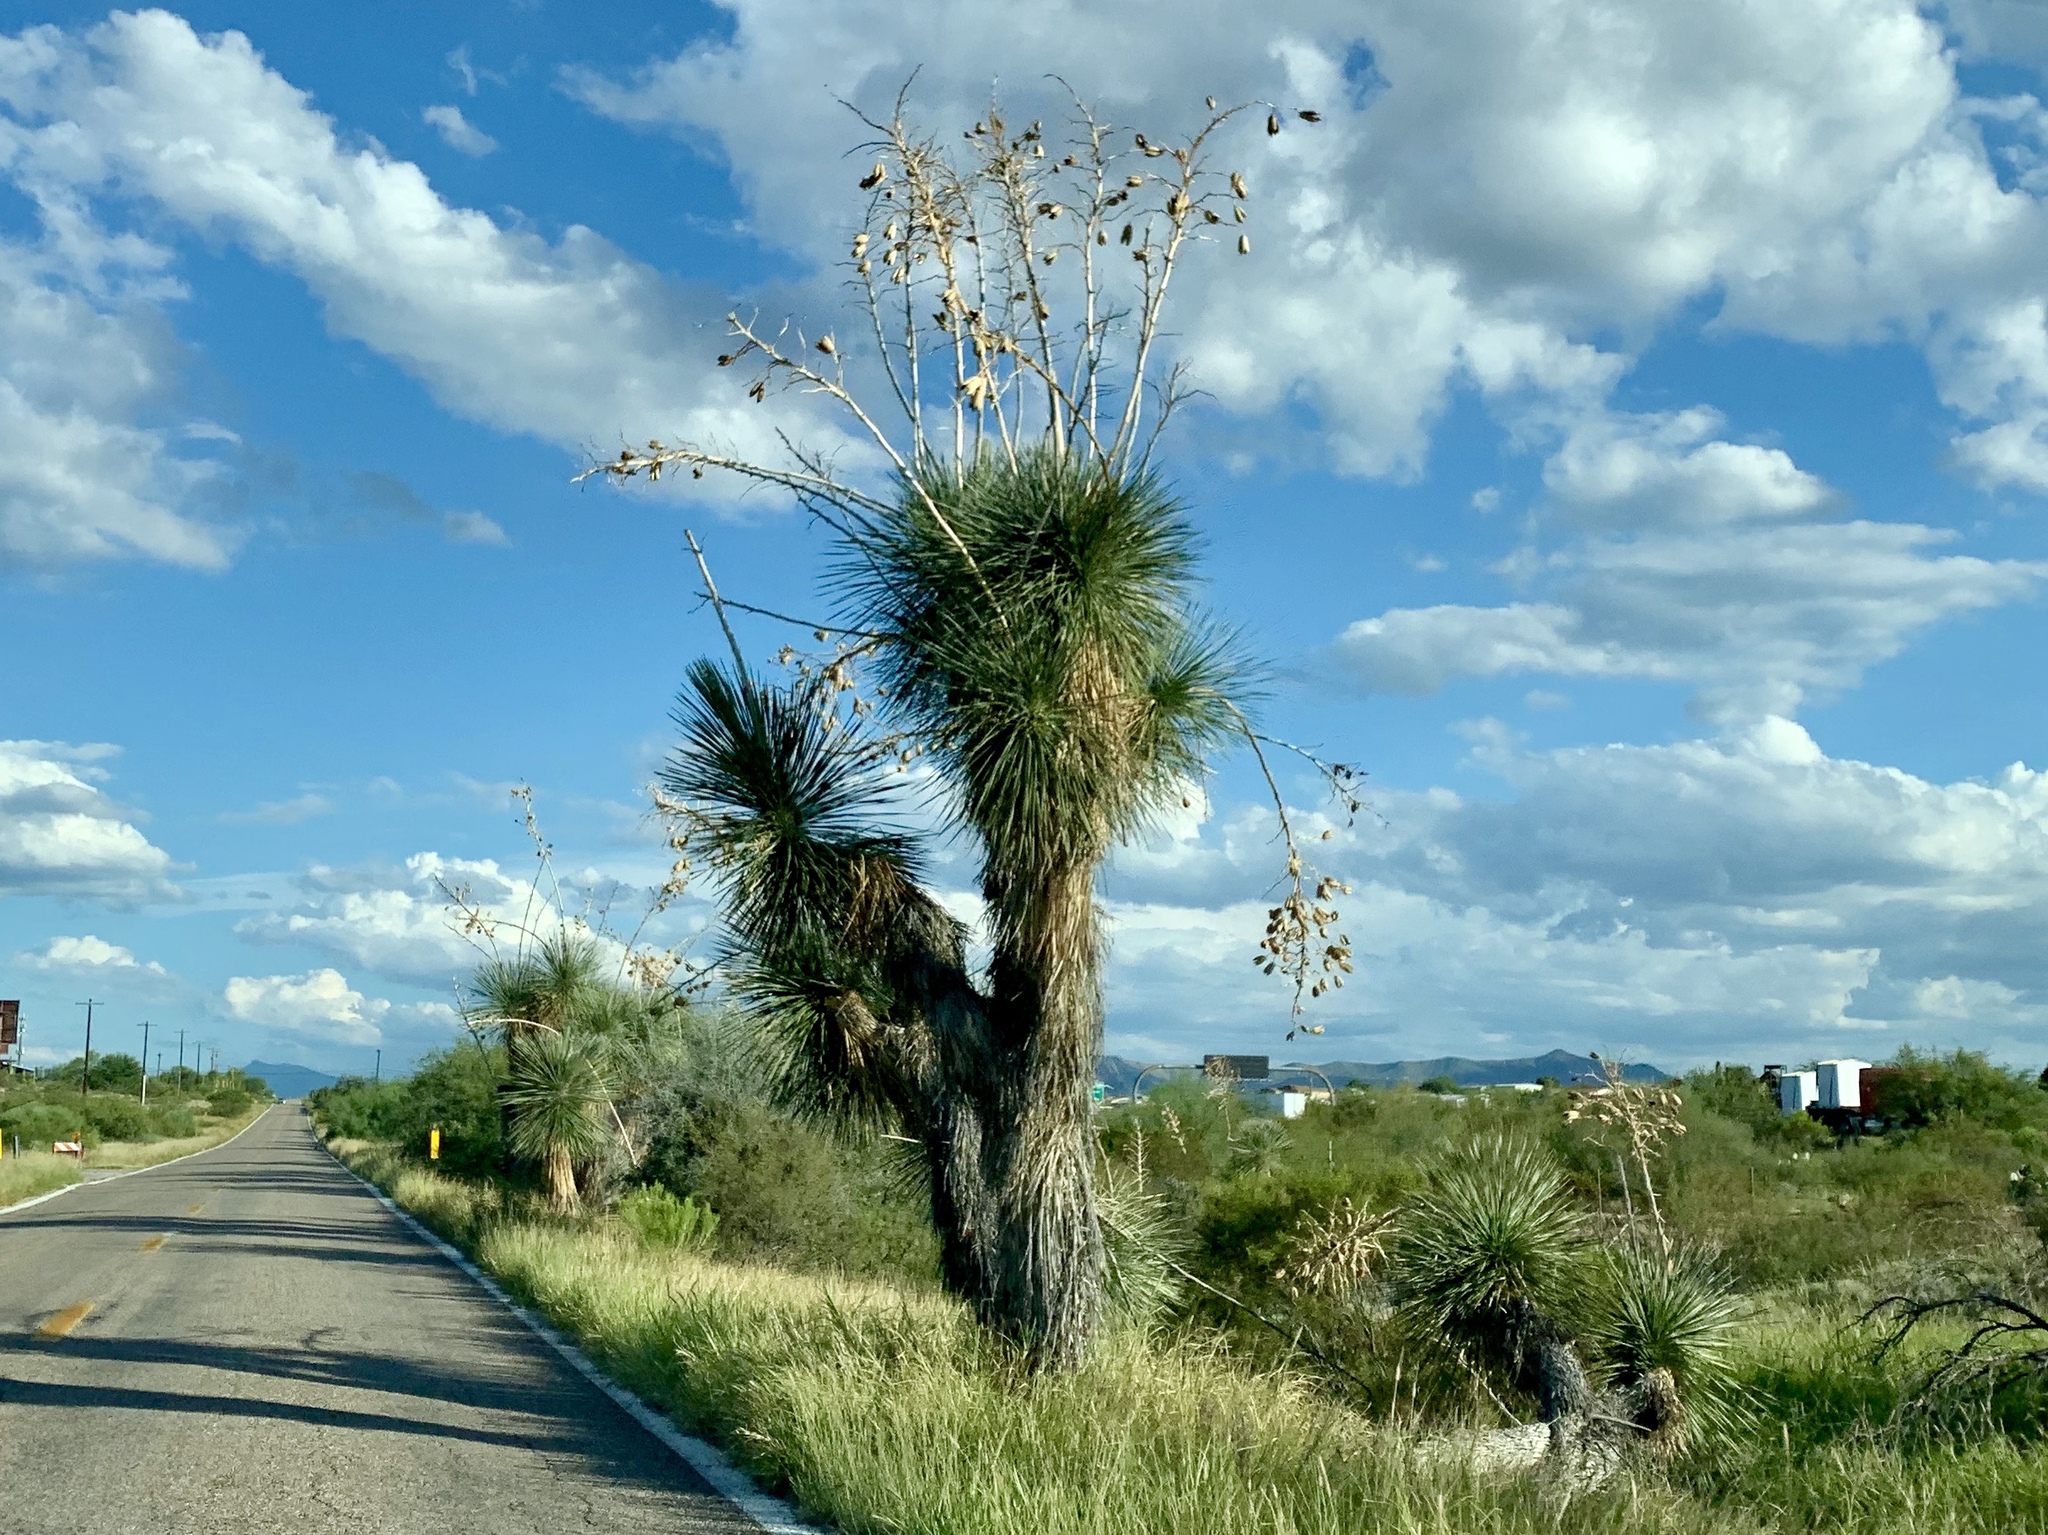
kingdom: Plantae
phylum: Tracheophyta
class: Liliopsida
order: Asparagales
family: Asparagaceae
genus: Yucca
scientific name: Yucca elata
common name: Palmella
